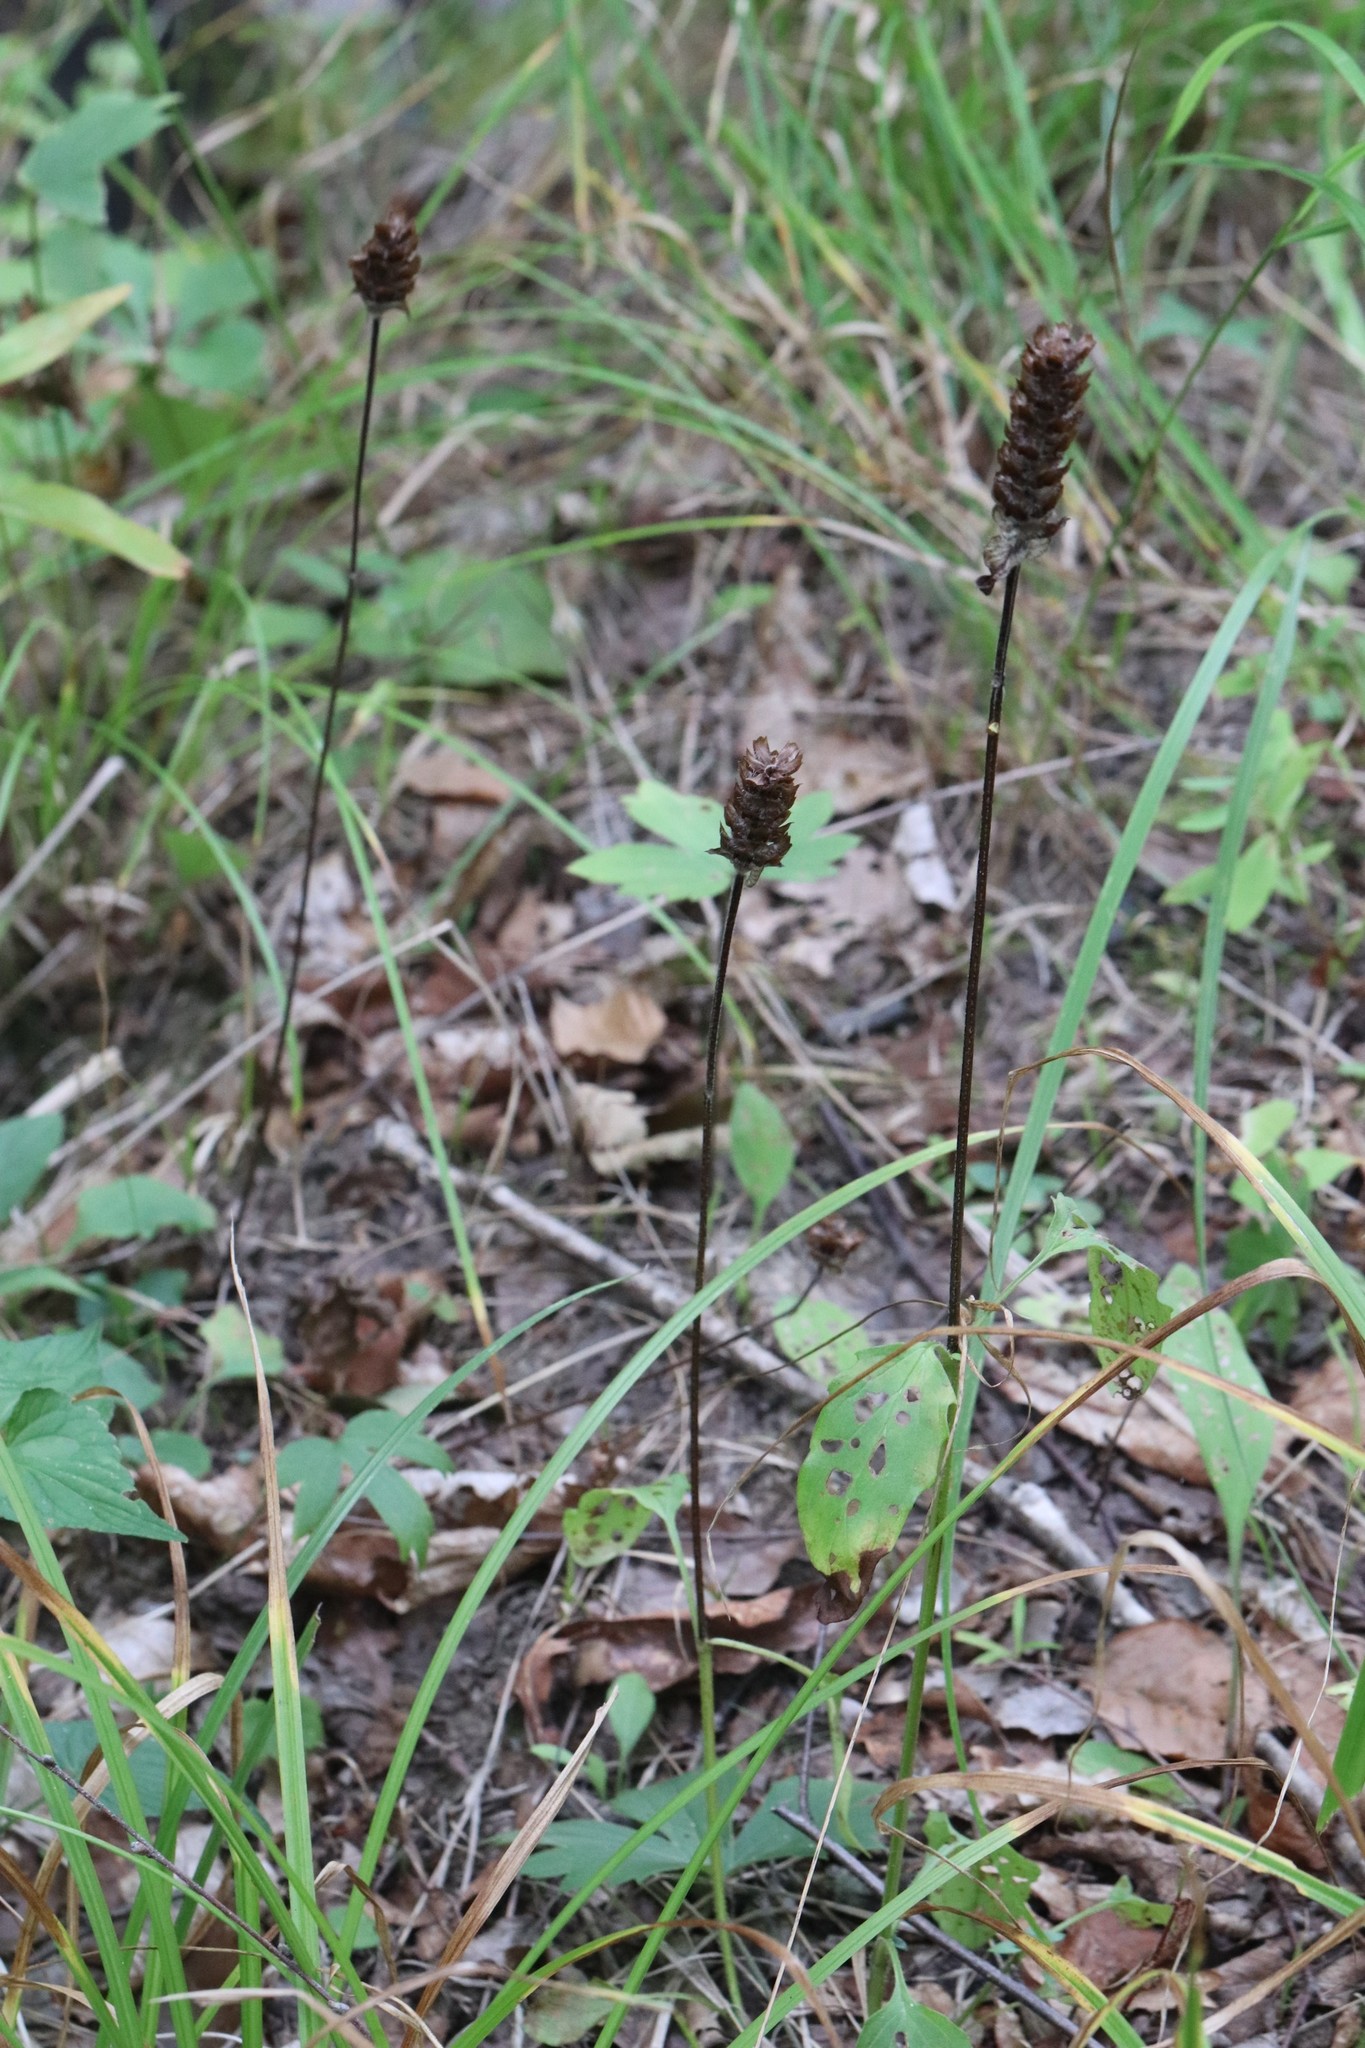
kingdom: Plantae
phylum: Tracheophyta
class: Magnoliopsida
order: Lamiales
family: Lamiaceae
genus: Prunella
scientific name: Prunella vulgaris
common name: Heal-all
